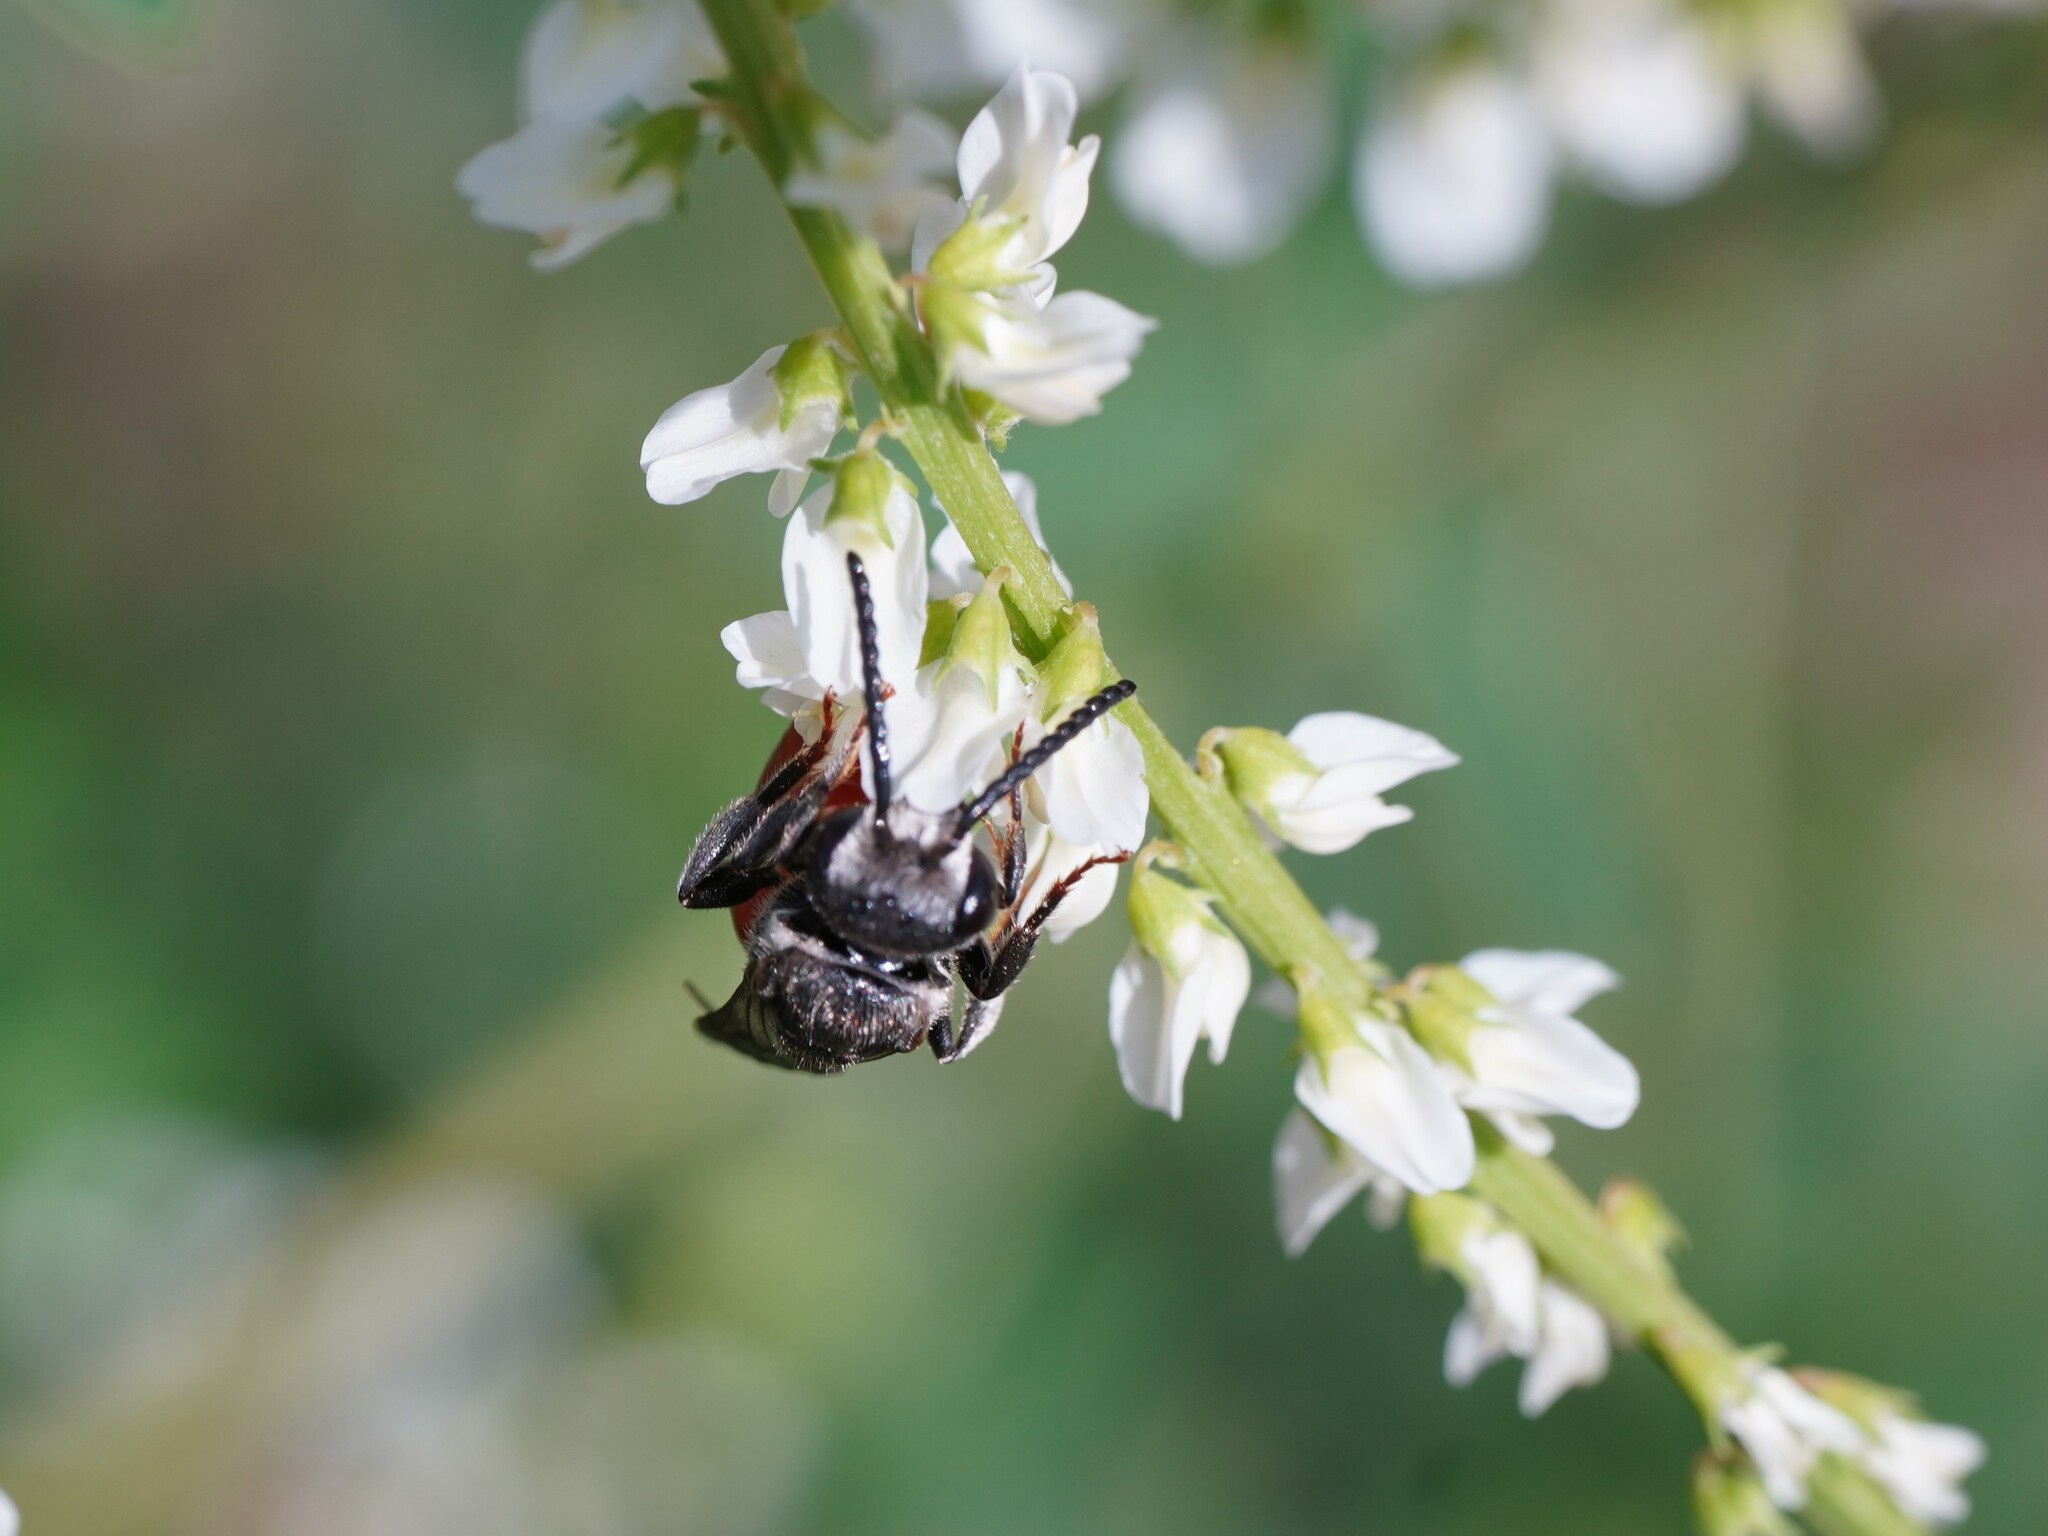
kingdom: Animalia
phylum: Arthropoda
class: Insecta
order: Hymenoptera
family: Halictidae
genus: Sphecodes
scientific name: Sphecodes albilabris
